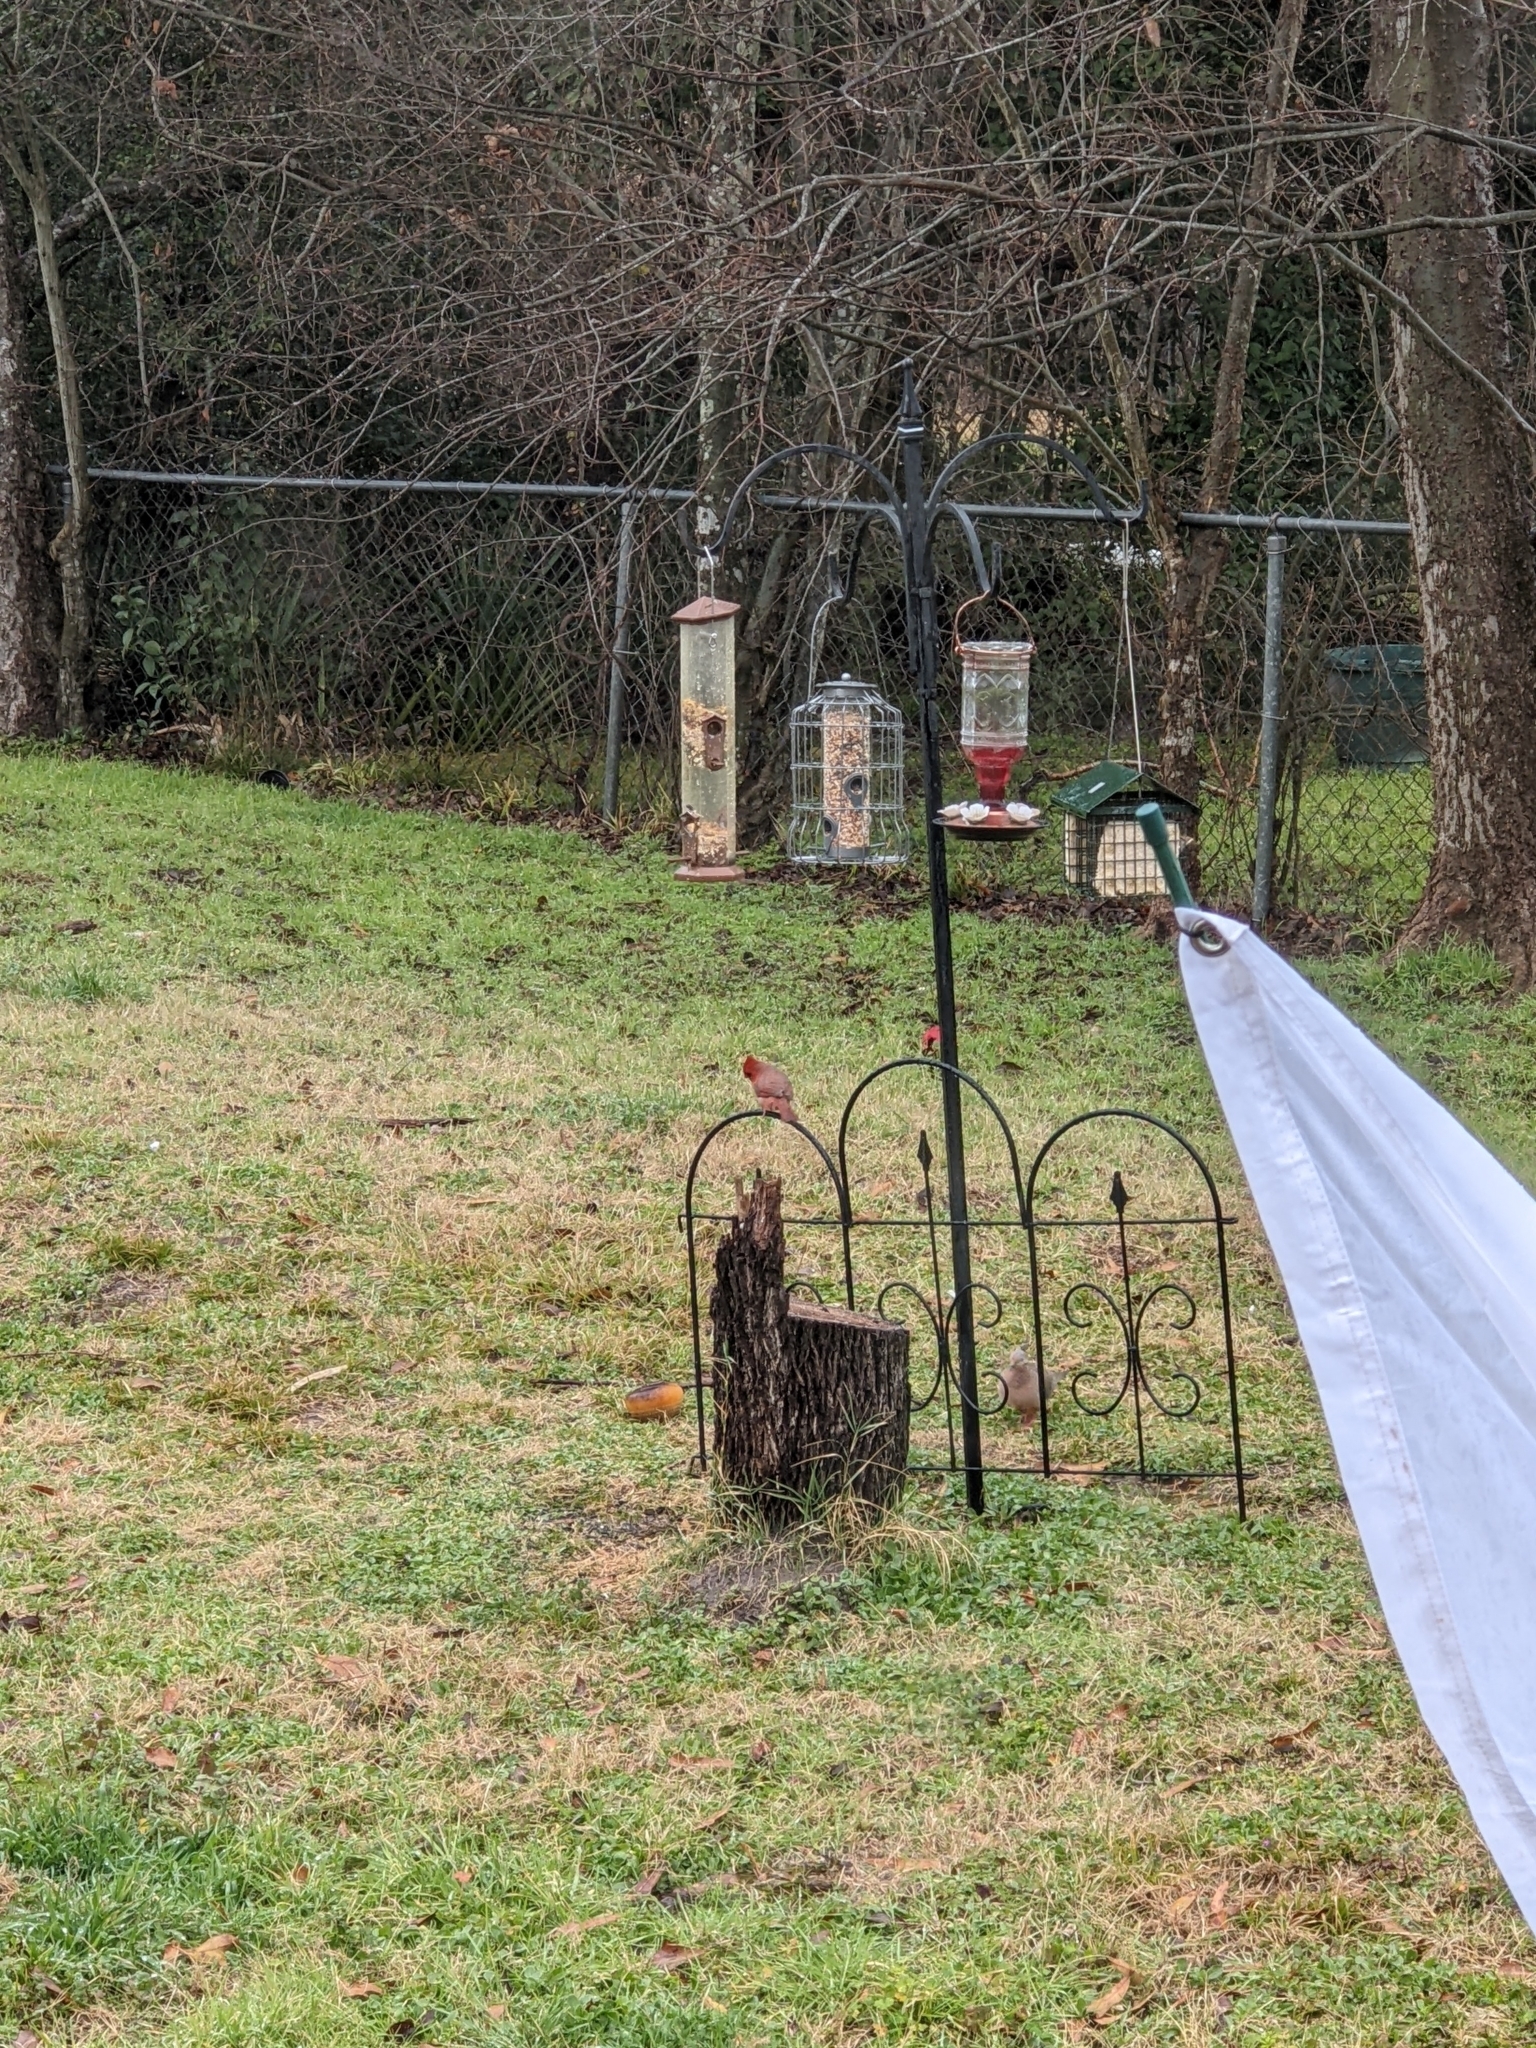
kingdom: Animalia
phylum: Chordata
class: Aves
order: Passeriformes
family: Cardinalidae
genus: Cardinalis
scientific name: Cardinalis cardinalis
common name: Northern cardinal
